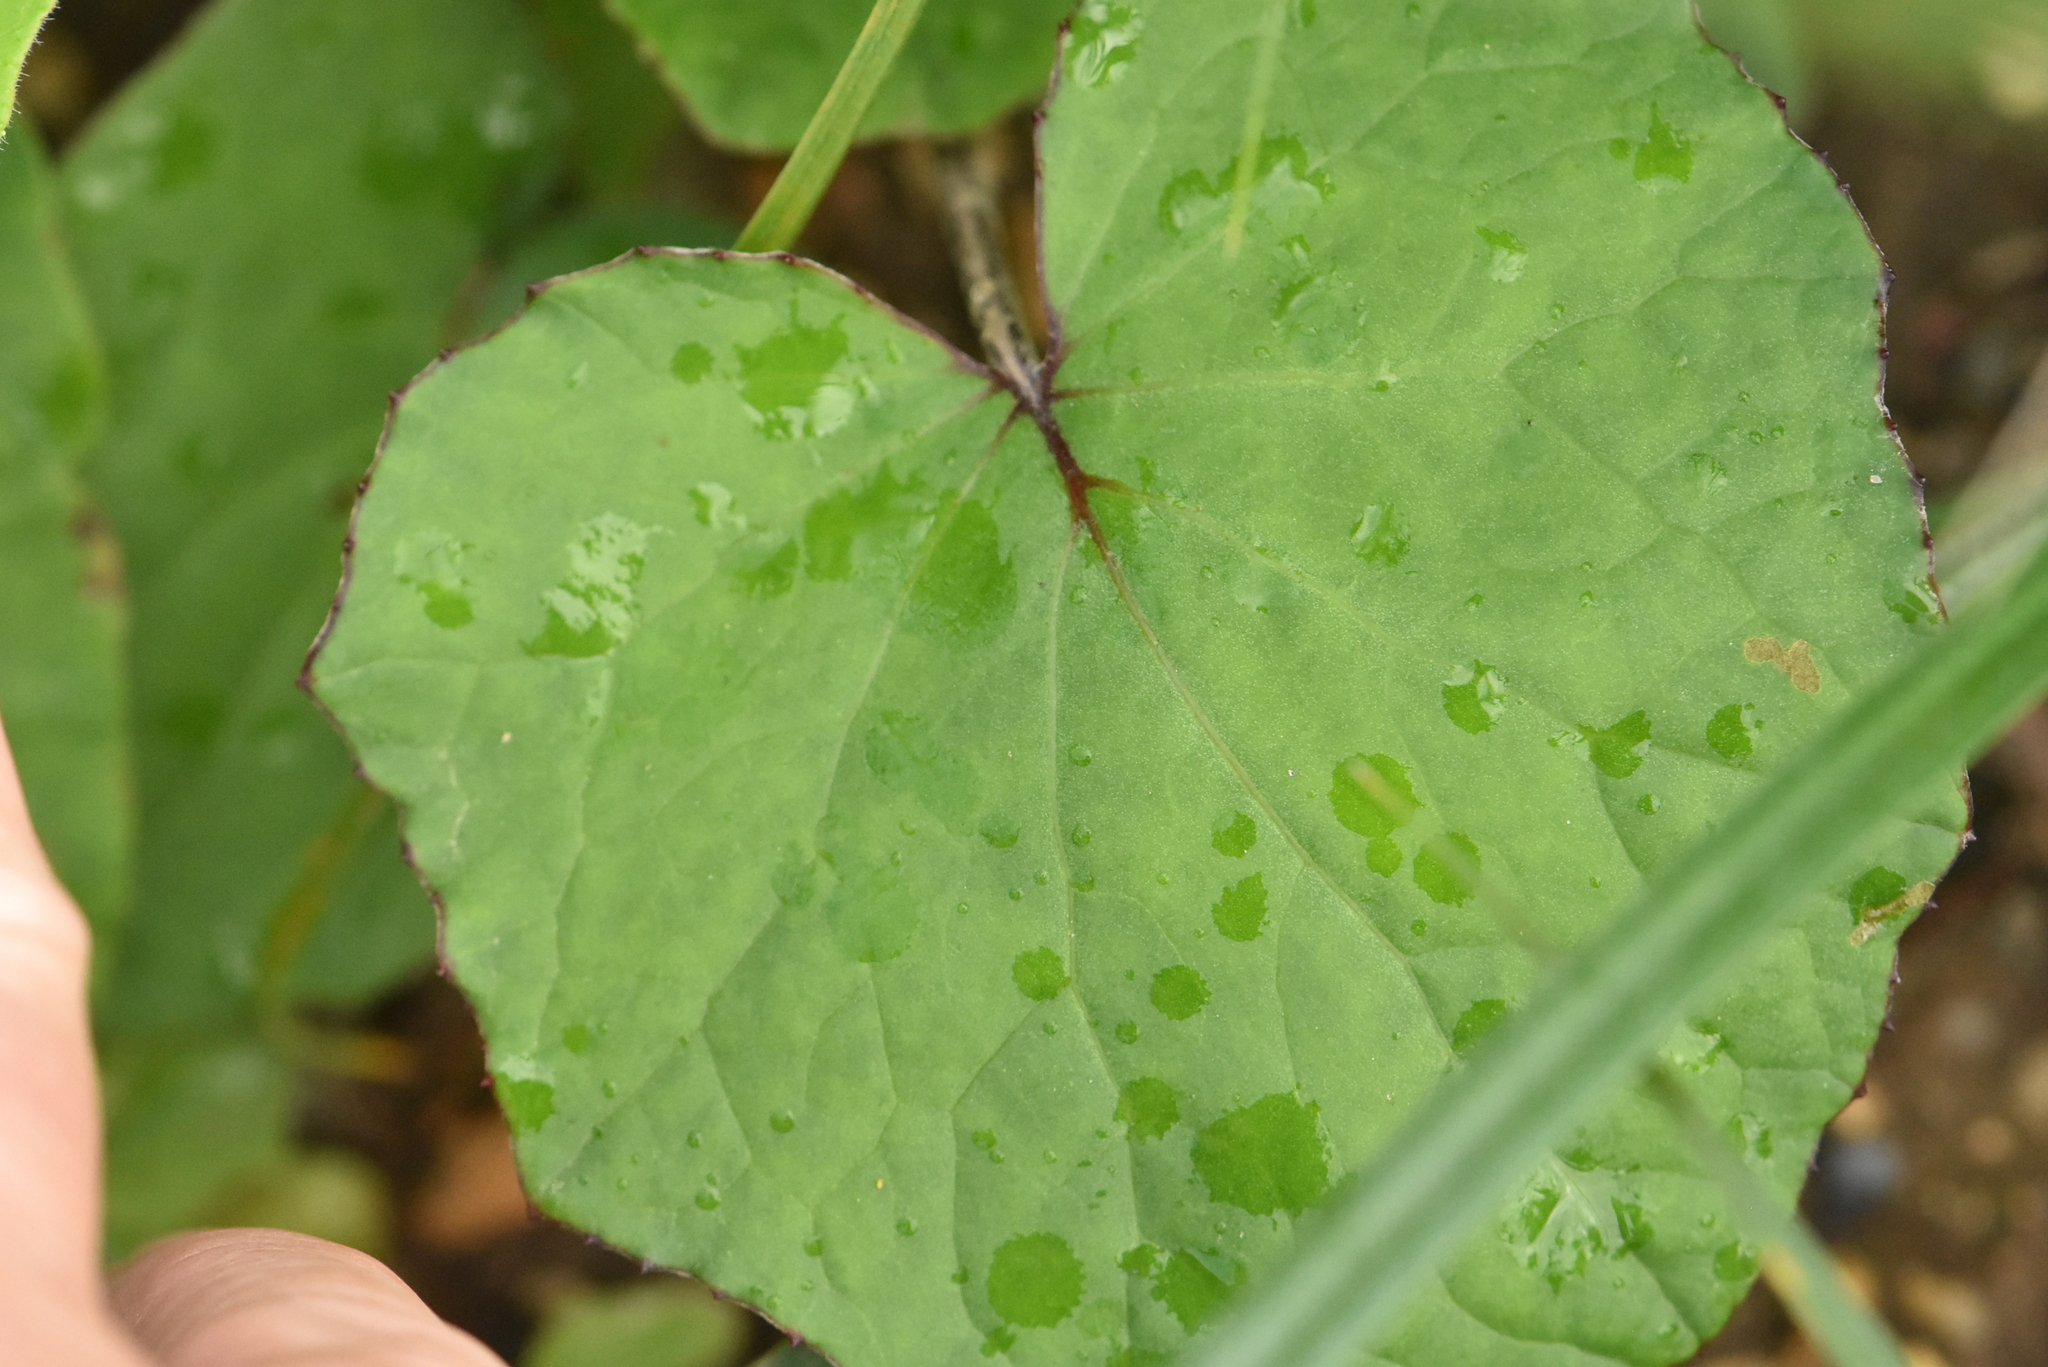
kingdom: Plantae
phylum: Tracheophyta
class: Magnoliopsida
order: Asterales
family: Asteraceae
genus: Tussilago
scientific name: Tussilago farfara
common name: Coltsfoot
